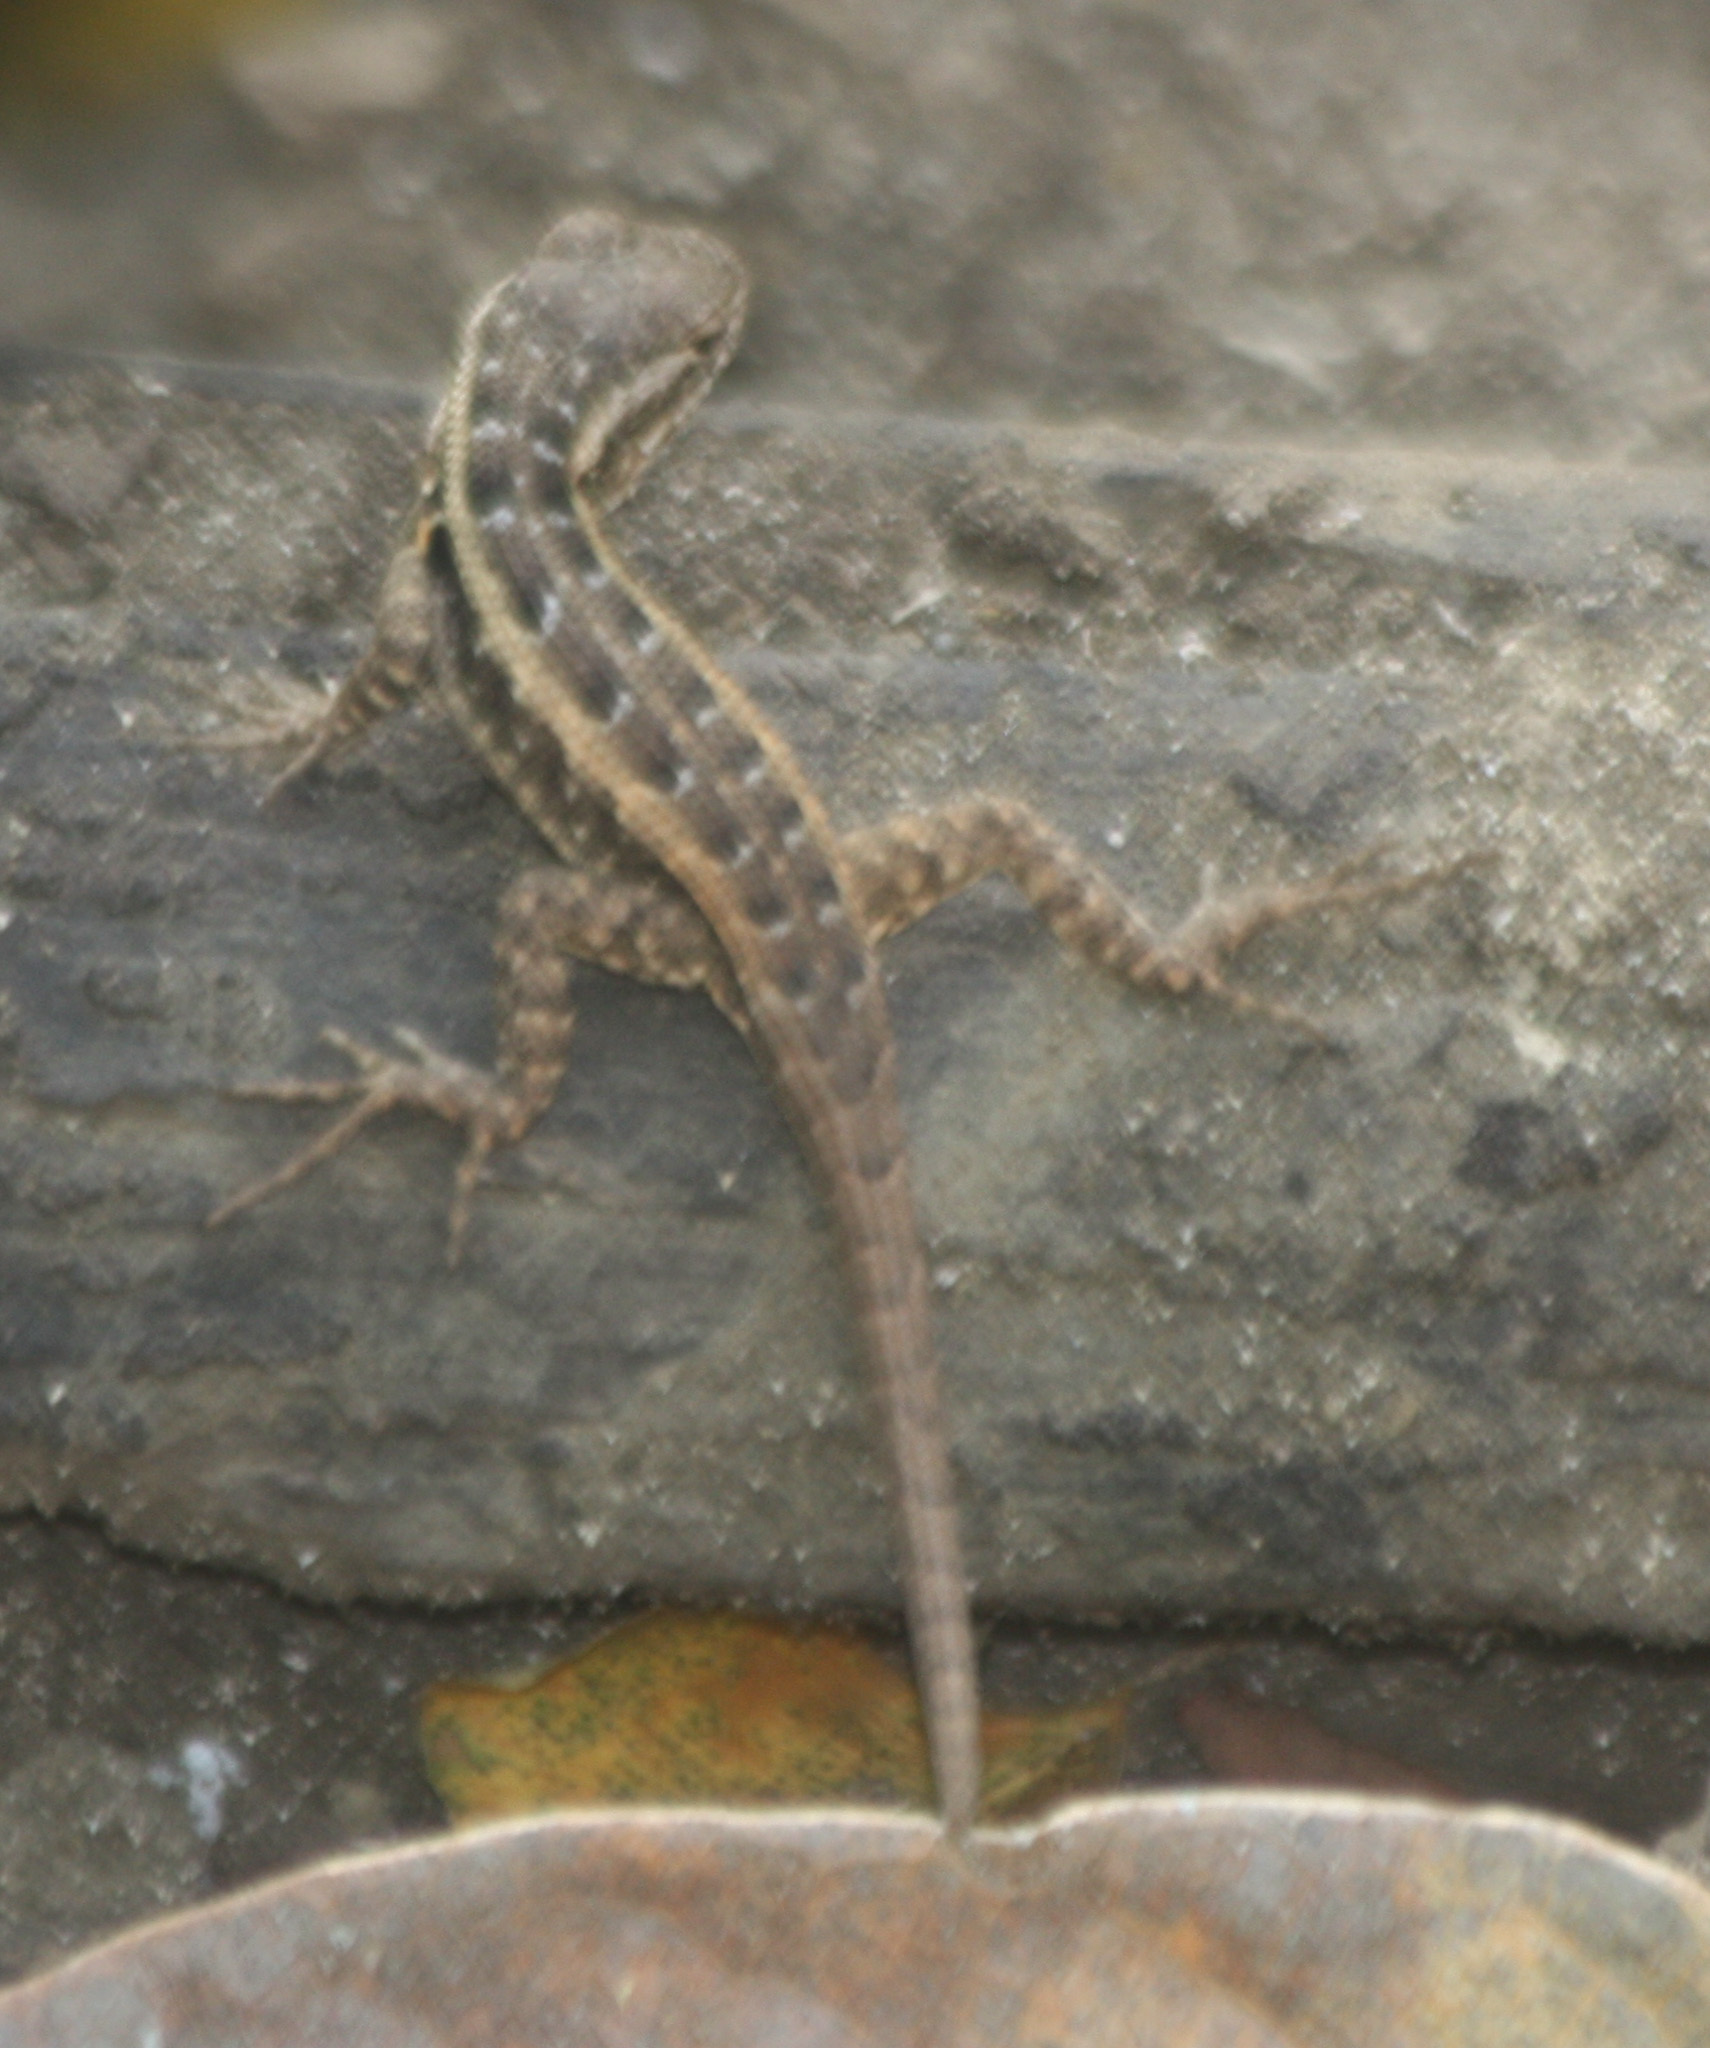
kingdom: Animalia
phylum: Chordata
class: Squamata
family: Phrynosomatidae
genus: Sceloporus
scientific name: Sceloporus variabilis
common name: Rosebelly lizard
